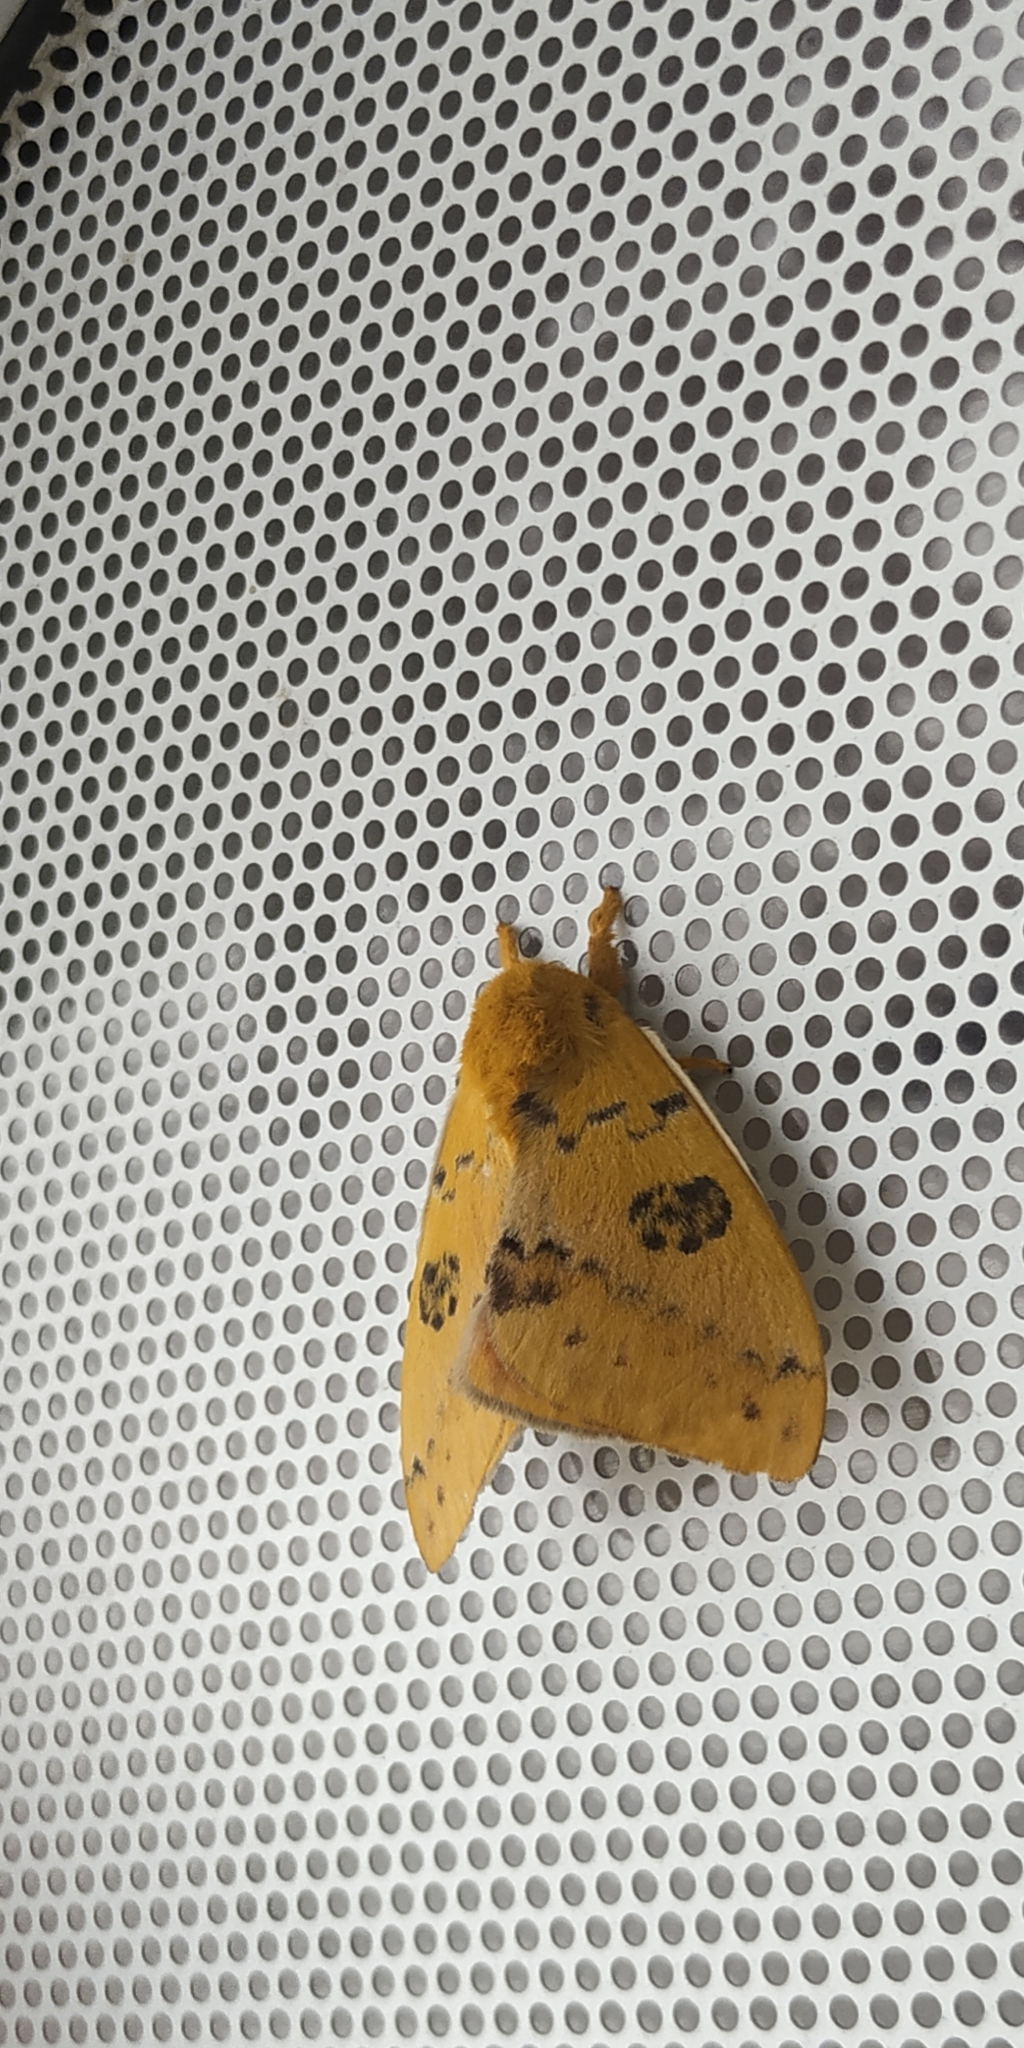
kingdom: Animalia
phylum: Arthropoda
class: Insecta
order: Lepidoptera
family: Saturniidae
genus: Automeris
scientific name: Automeris io
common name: Io moth
